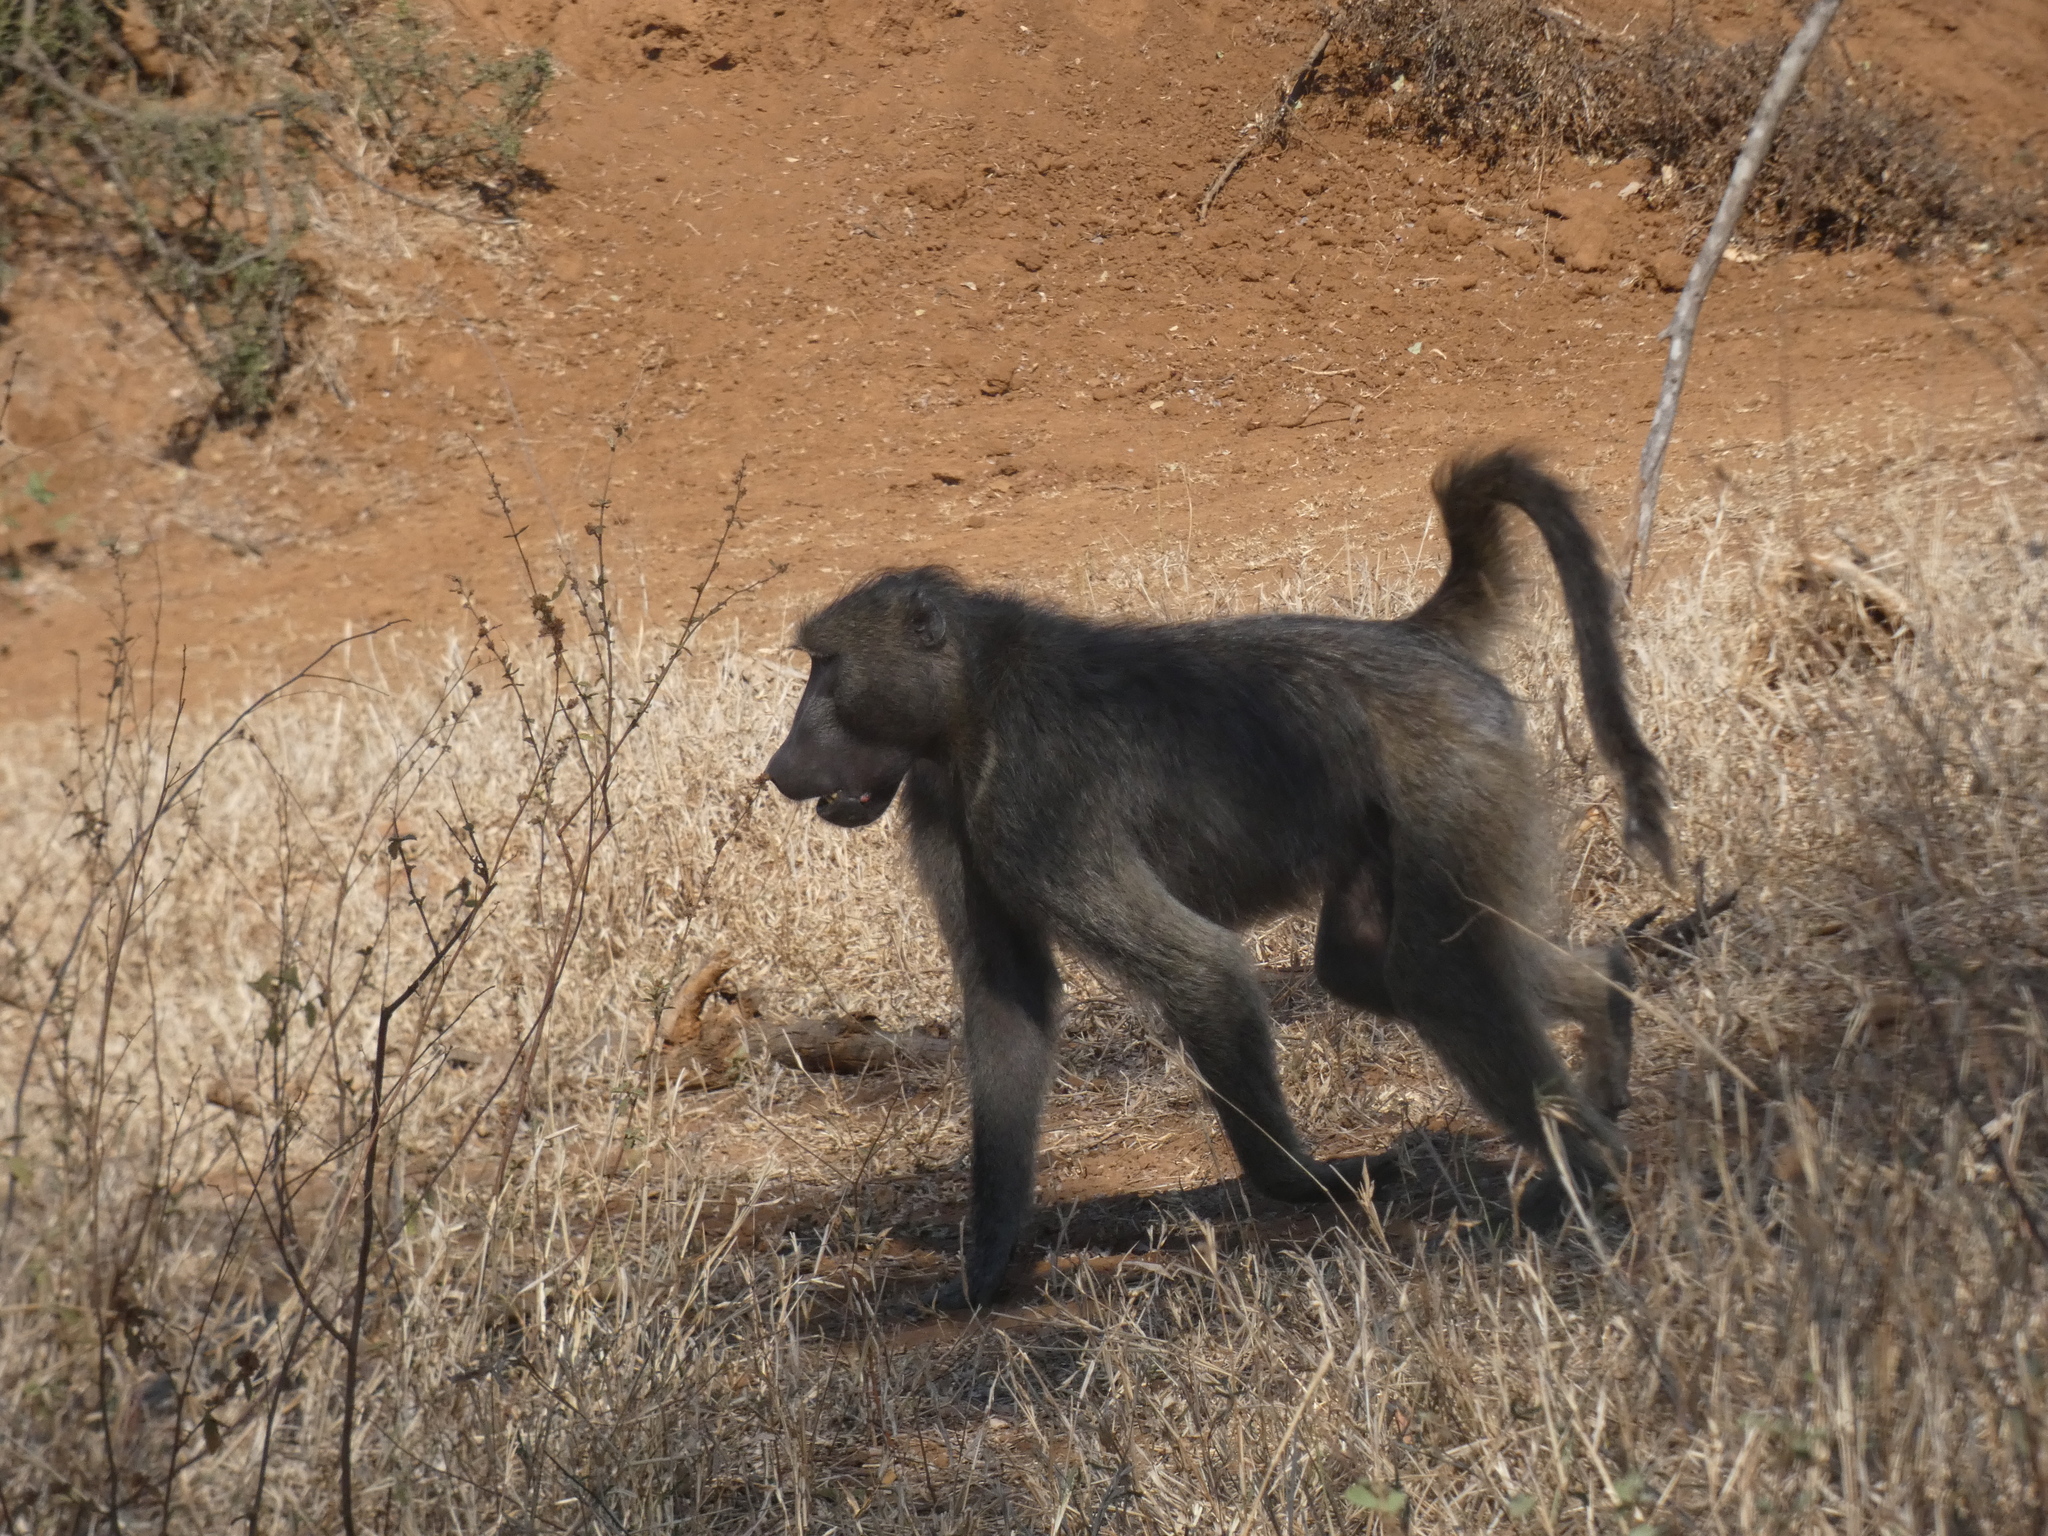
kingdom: Animalia
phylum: Chordata
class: Mammalia
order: Primates
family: Cercopithecidae
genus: Papio
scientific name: Papio ursinus
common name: Chacma baboon
